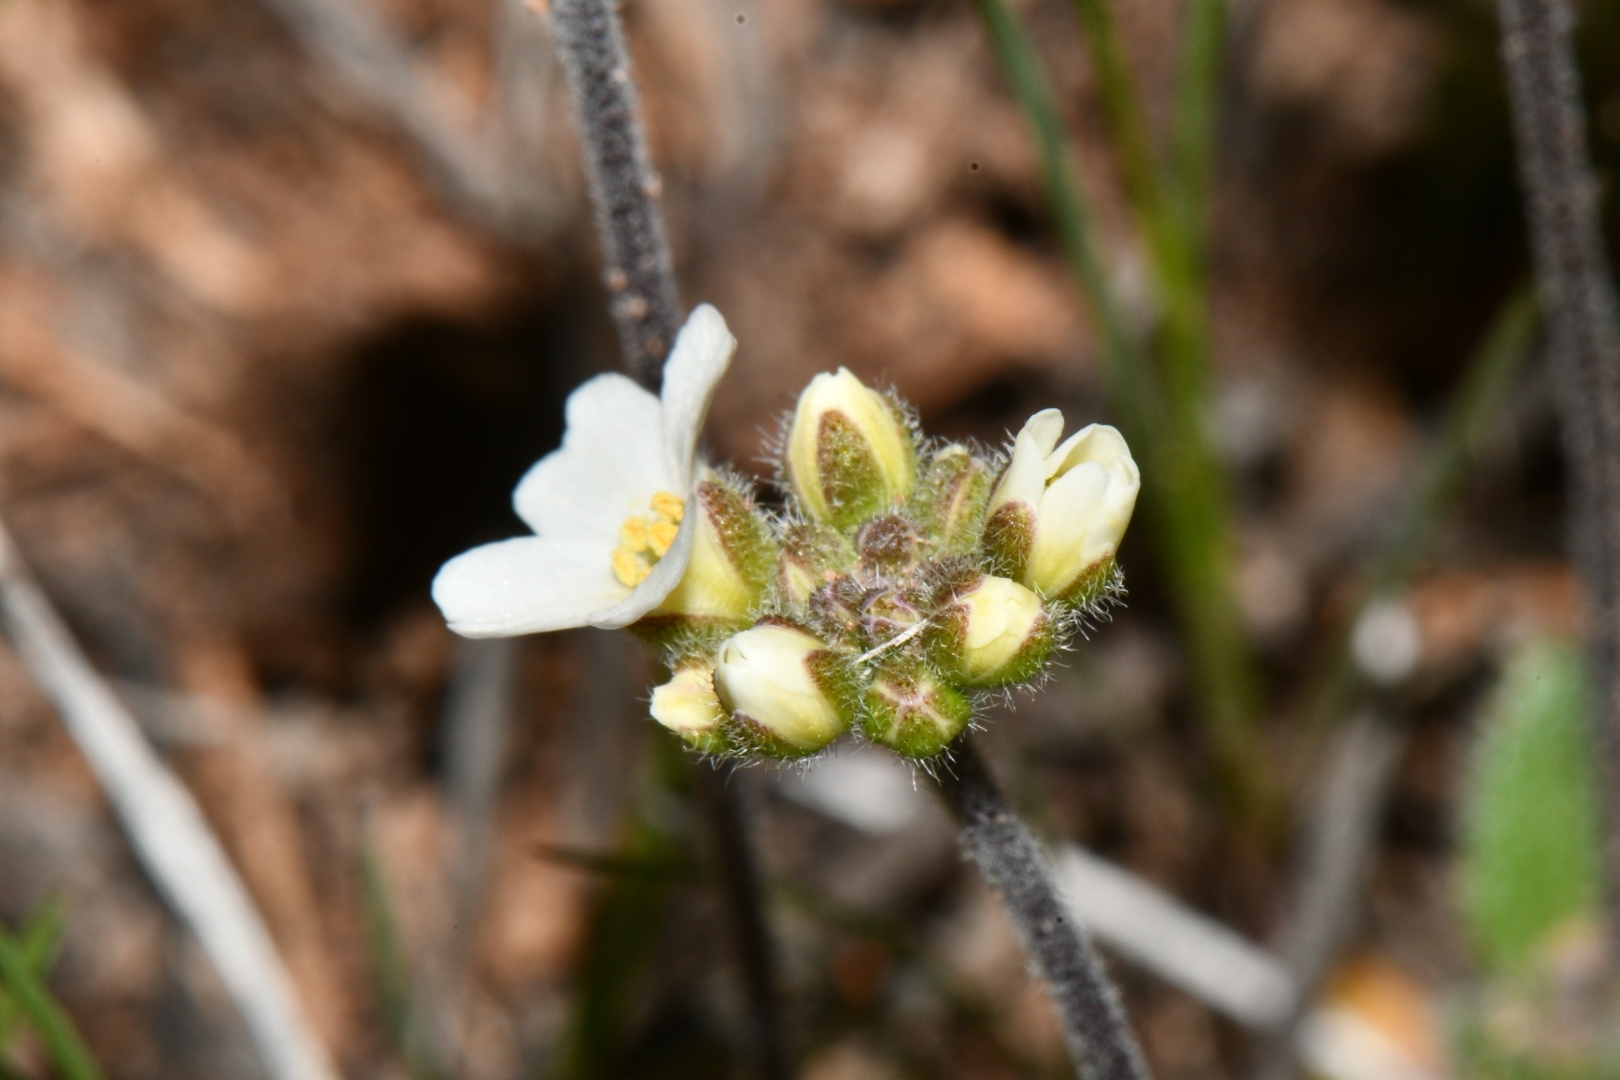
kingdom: Plantae
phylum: Tracheophyta
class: Magnoliopsida
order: Brassicales
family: Brassicaceae
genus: Tomostima
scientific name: Tomostima cuneifolia
